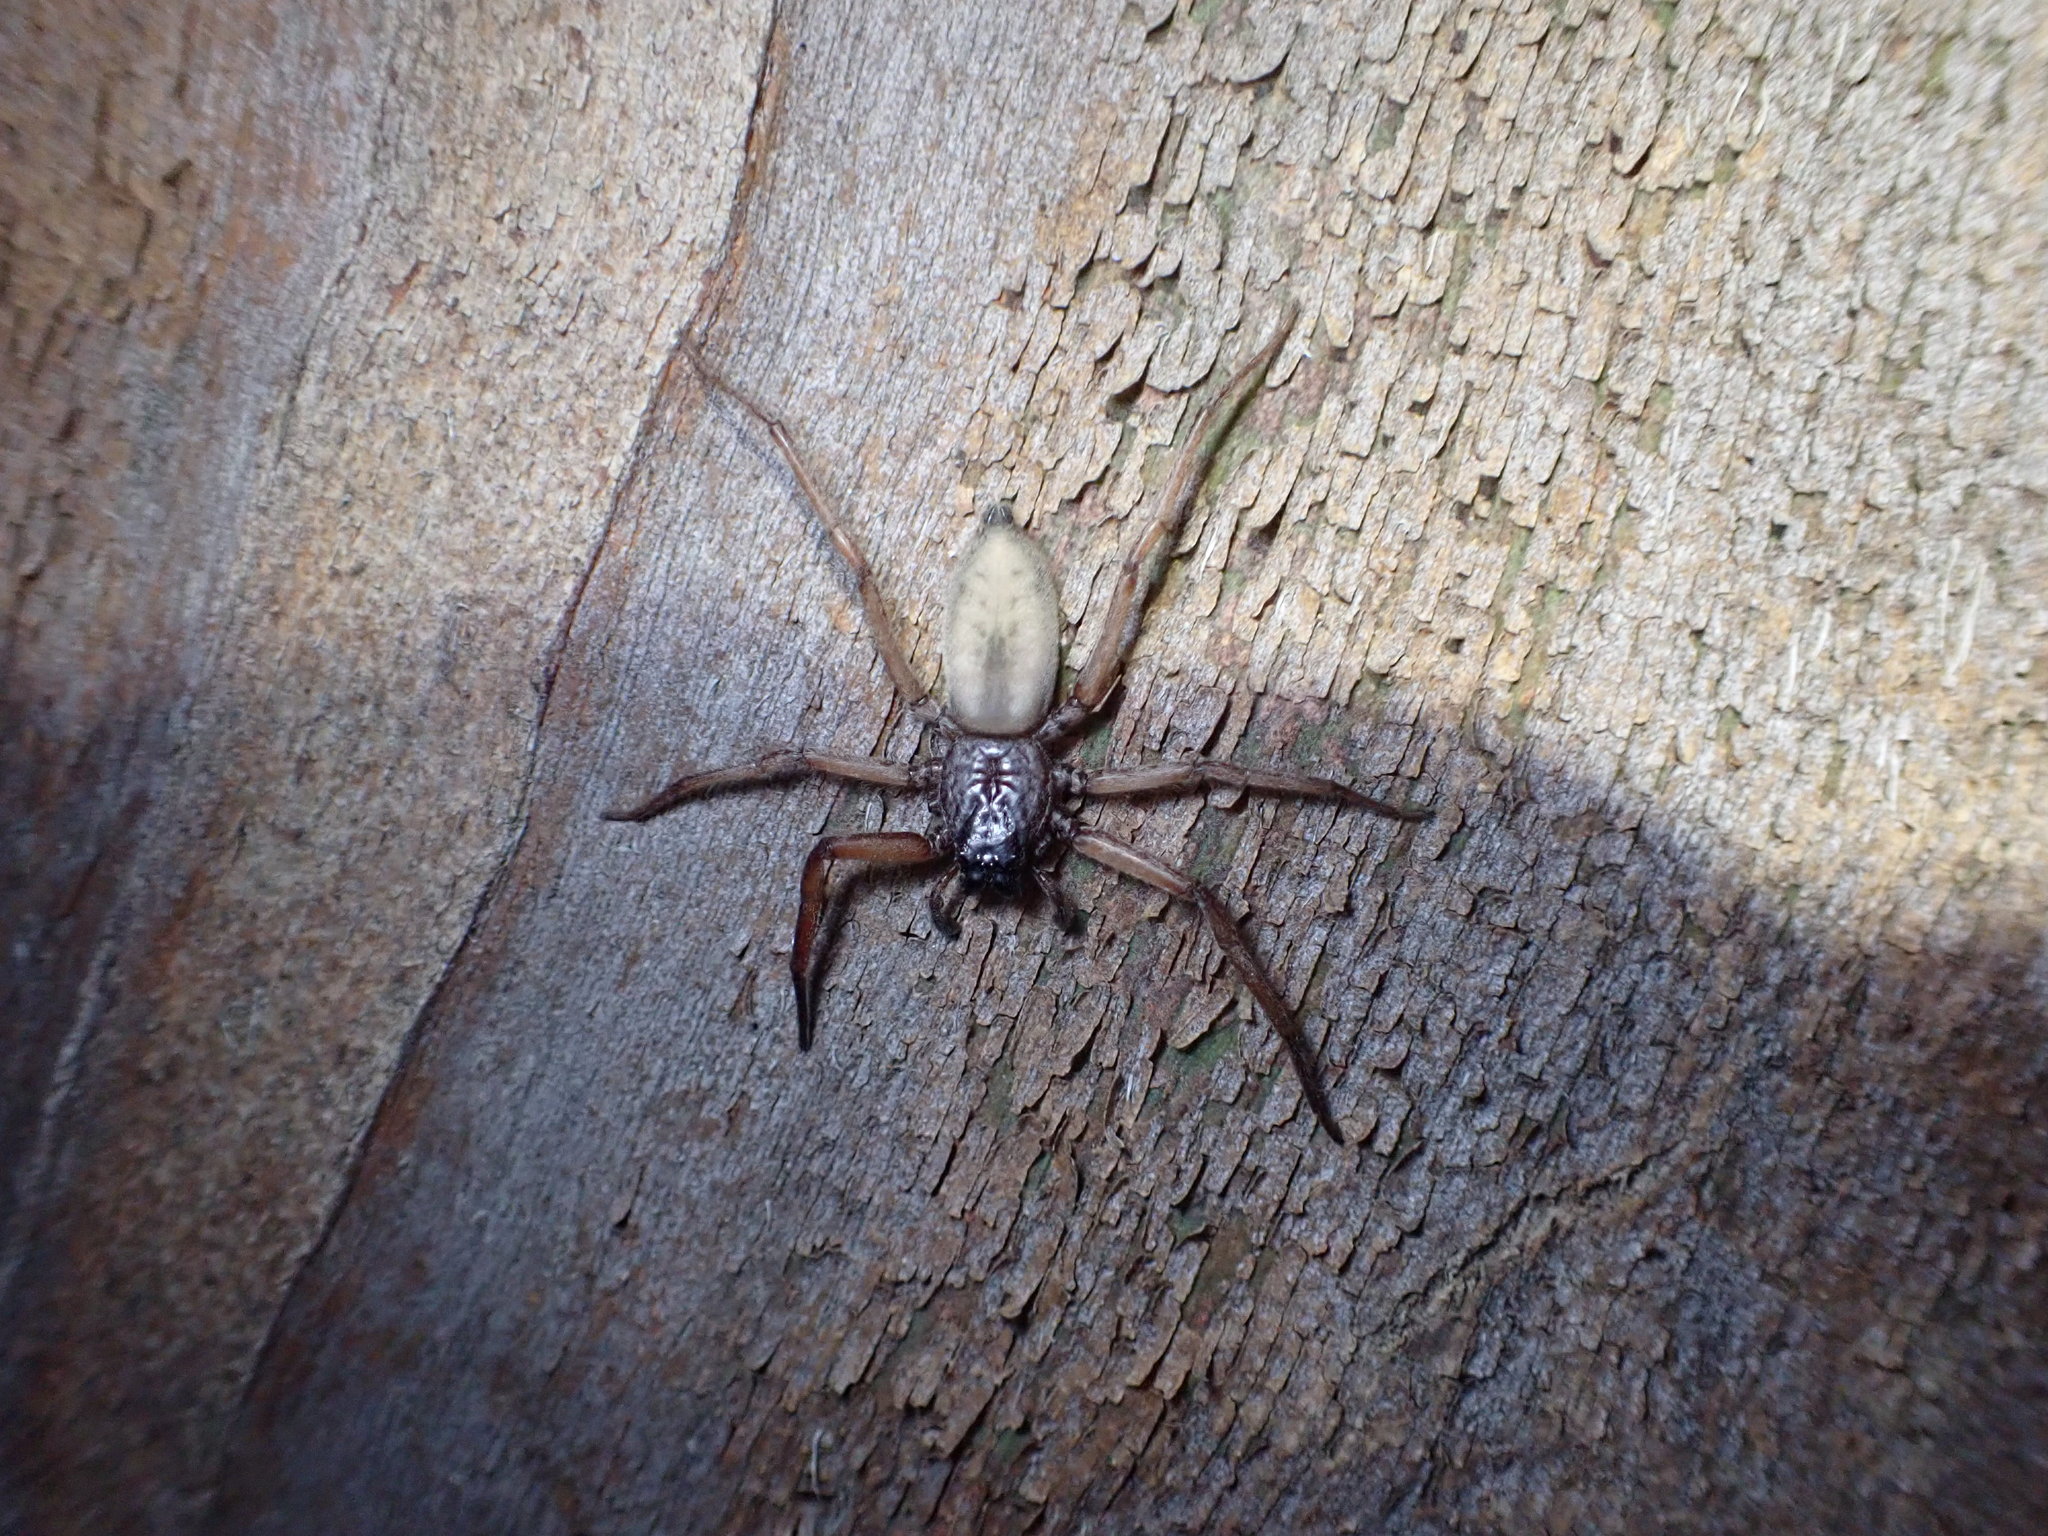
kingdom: Animalia
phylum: Arthropoda
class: Arachnida
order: Araneae
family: Trochanteriidae
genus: Hemicloea
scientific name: Hemicloea rogenhoferi
